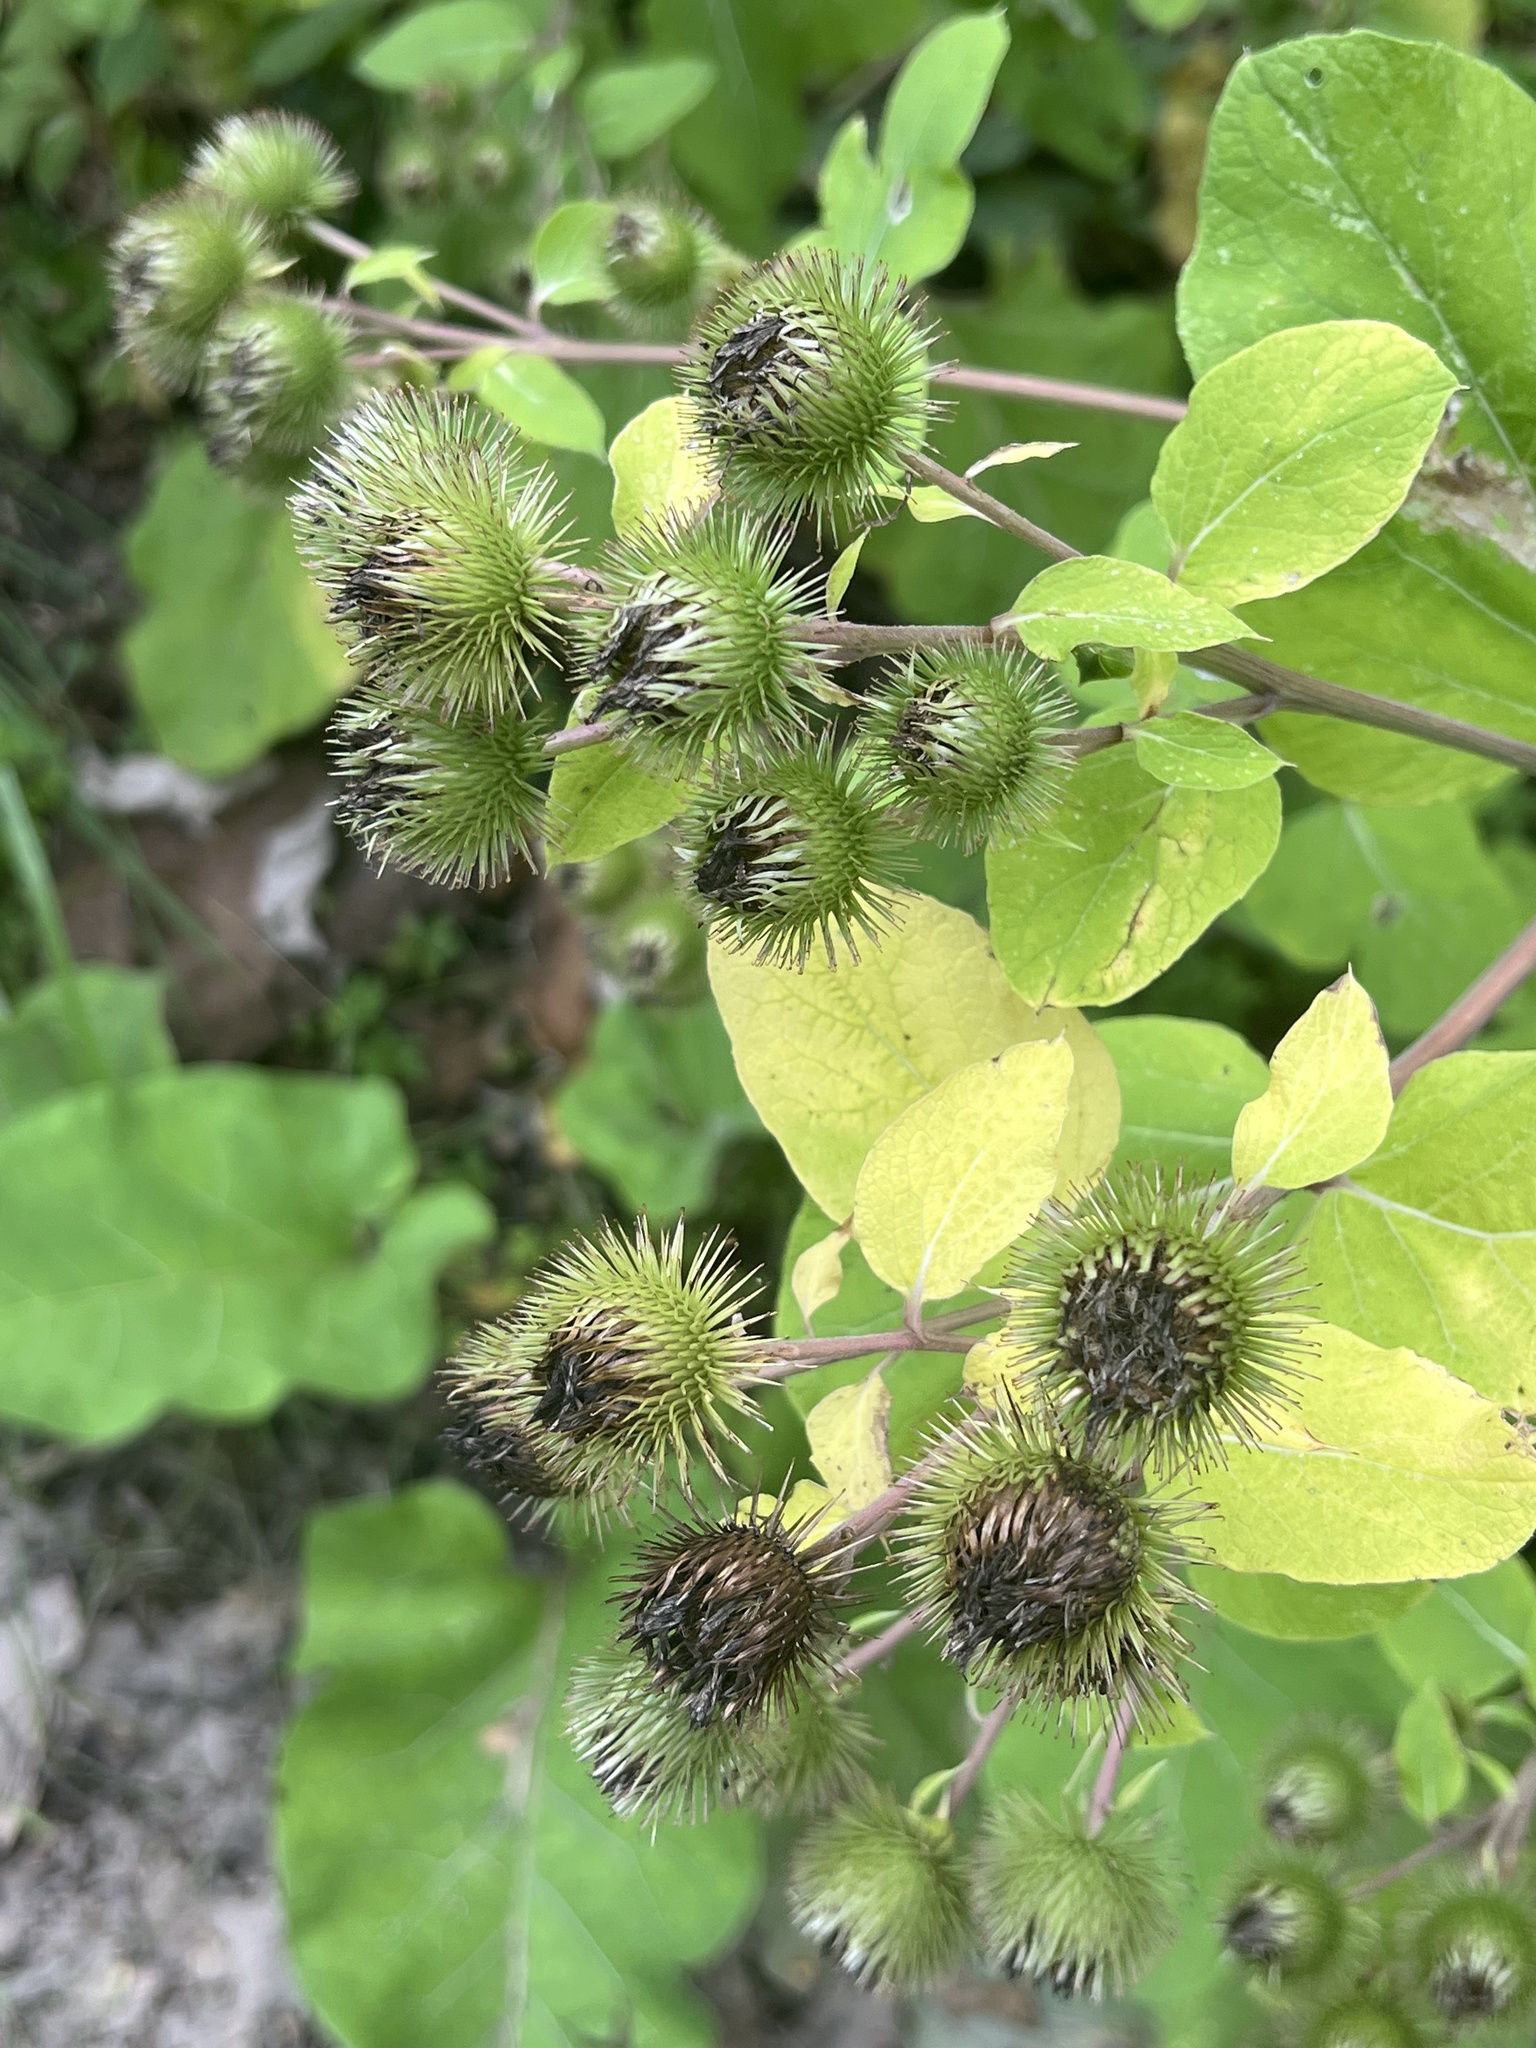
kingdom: Plantae
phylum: Tracheophyta
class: Magnoliopsida
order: Asterales
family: Asteraceae
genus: Arctium
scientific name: Arctium lappa
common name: Greater burdock
